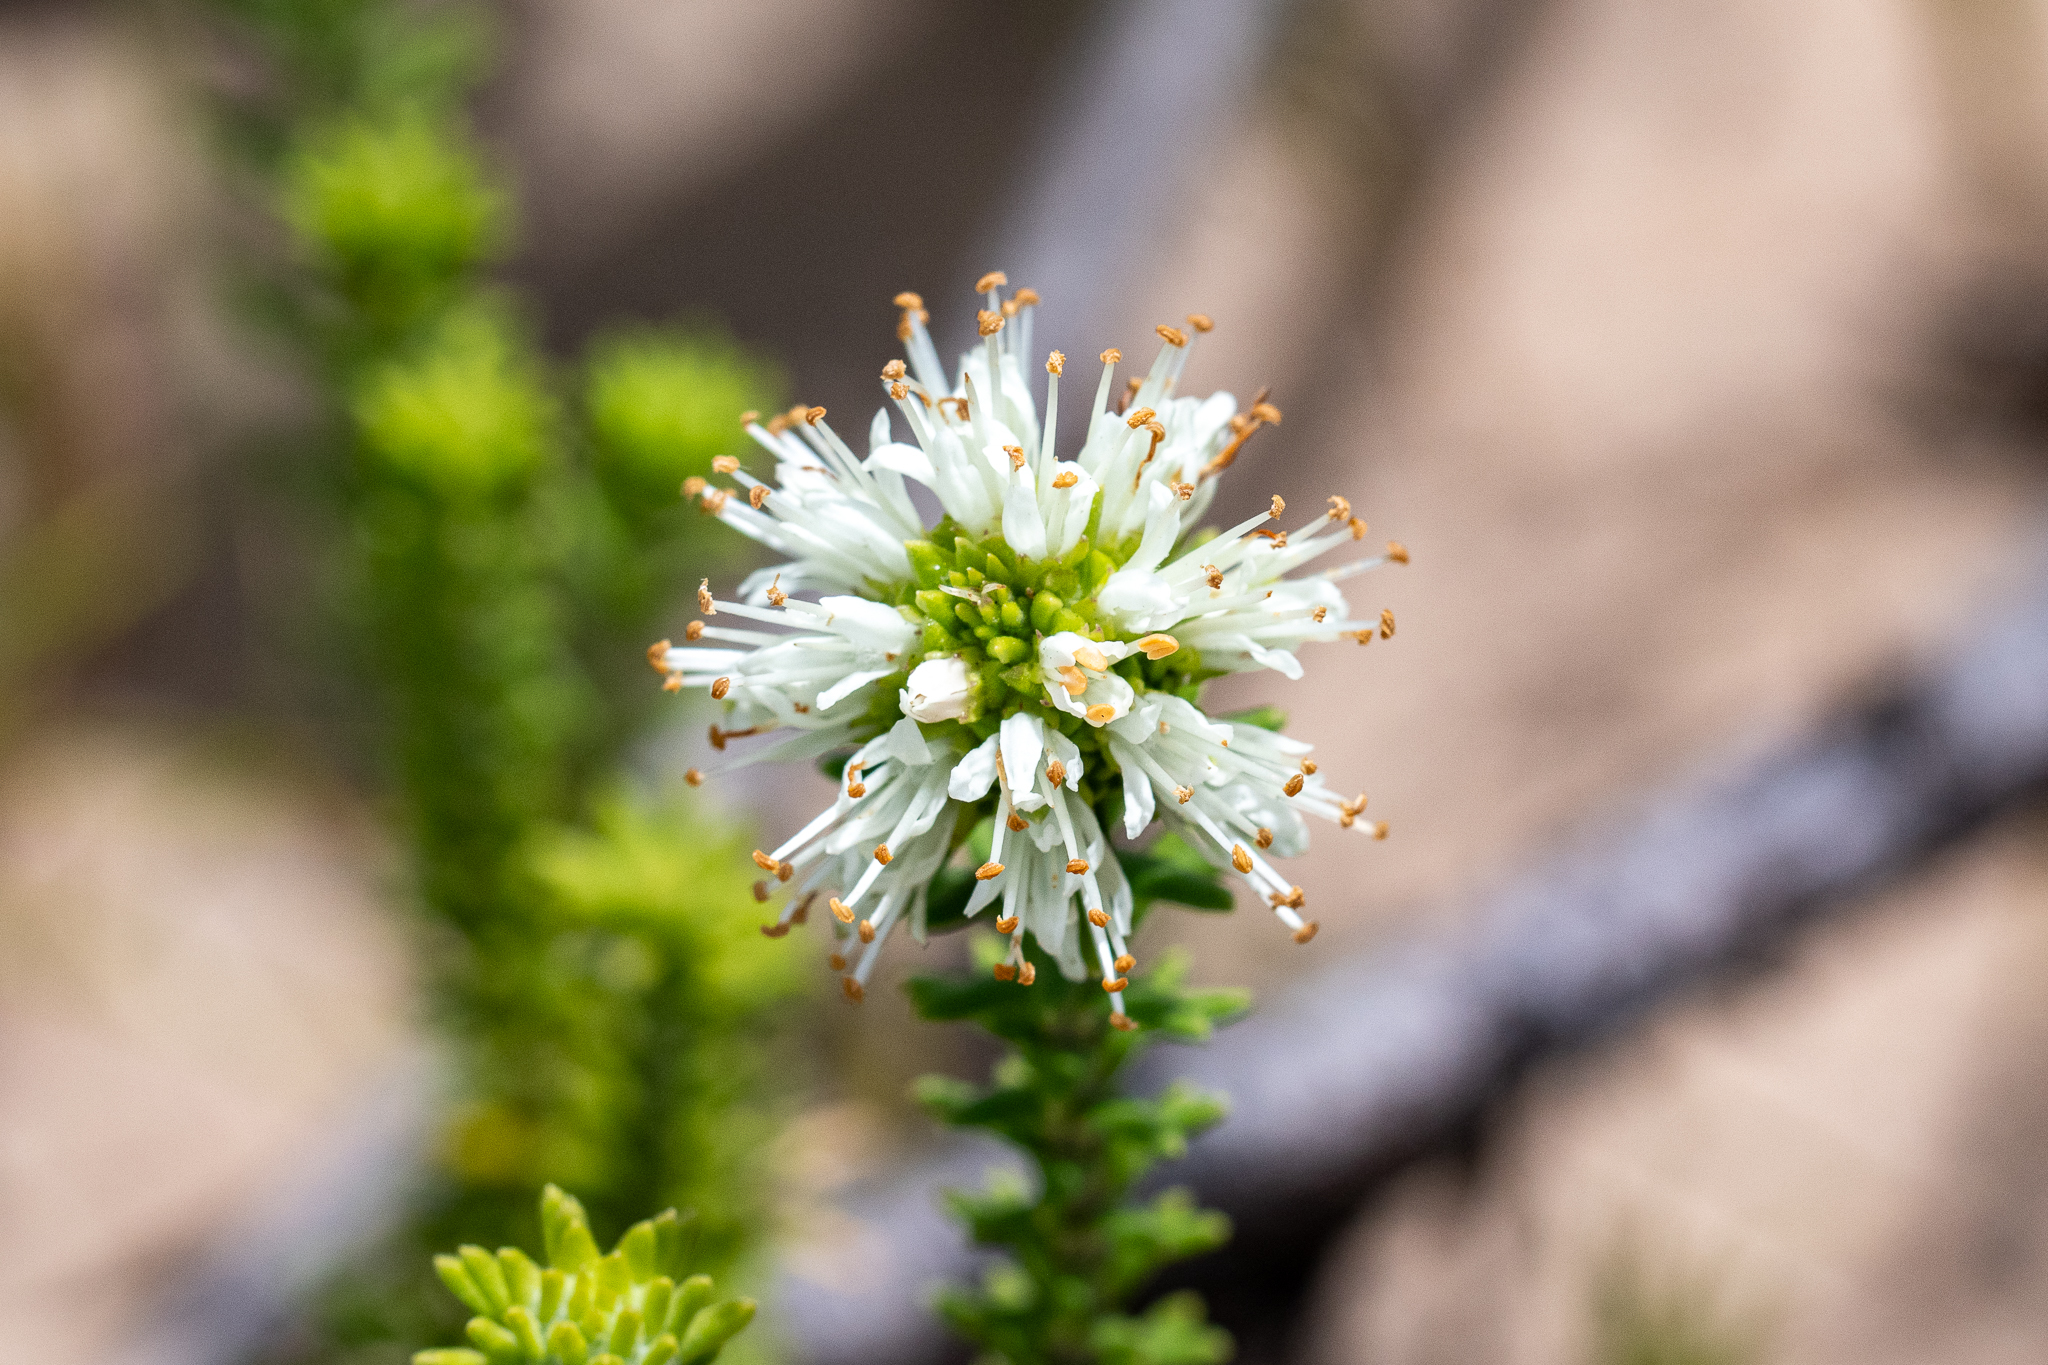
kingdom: Plantae
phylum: Tracheophyta
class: Magnoliopsida
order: Lamiales
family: Stilbaceae
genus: Campylostachys
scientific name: Campylostachys cernua
